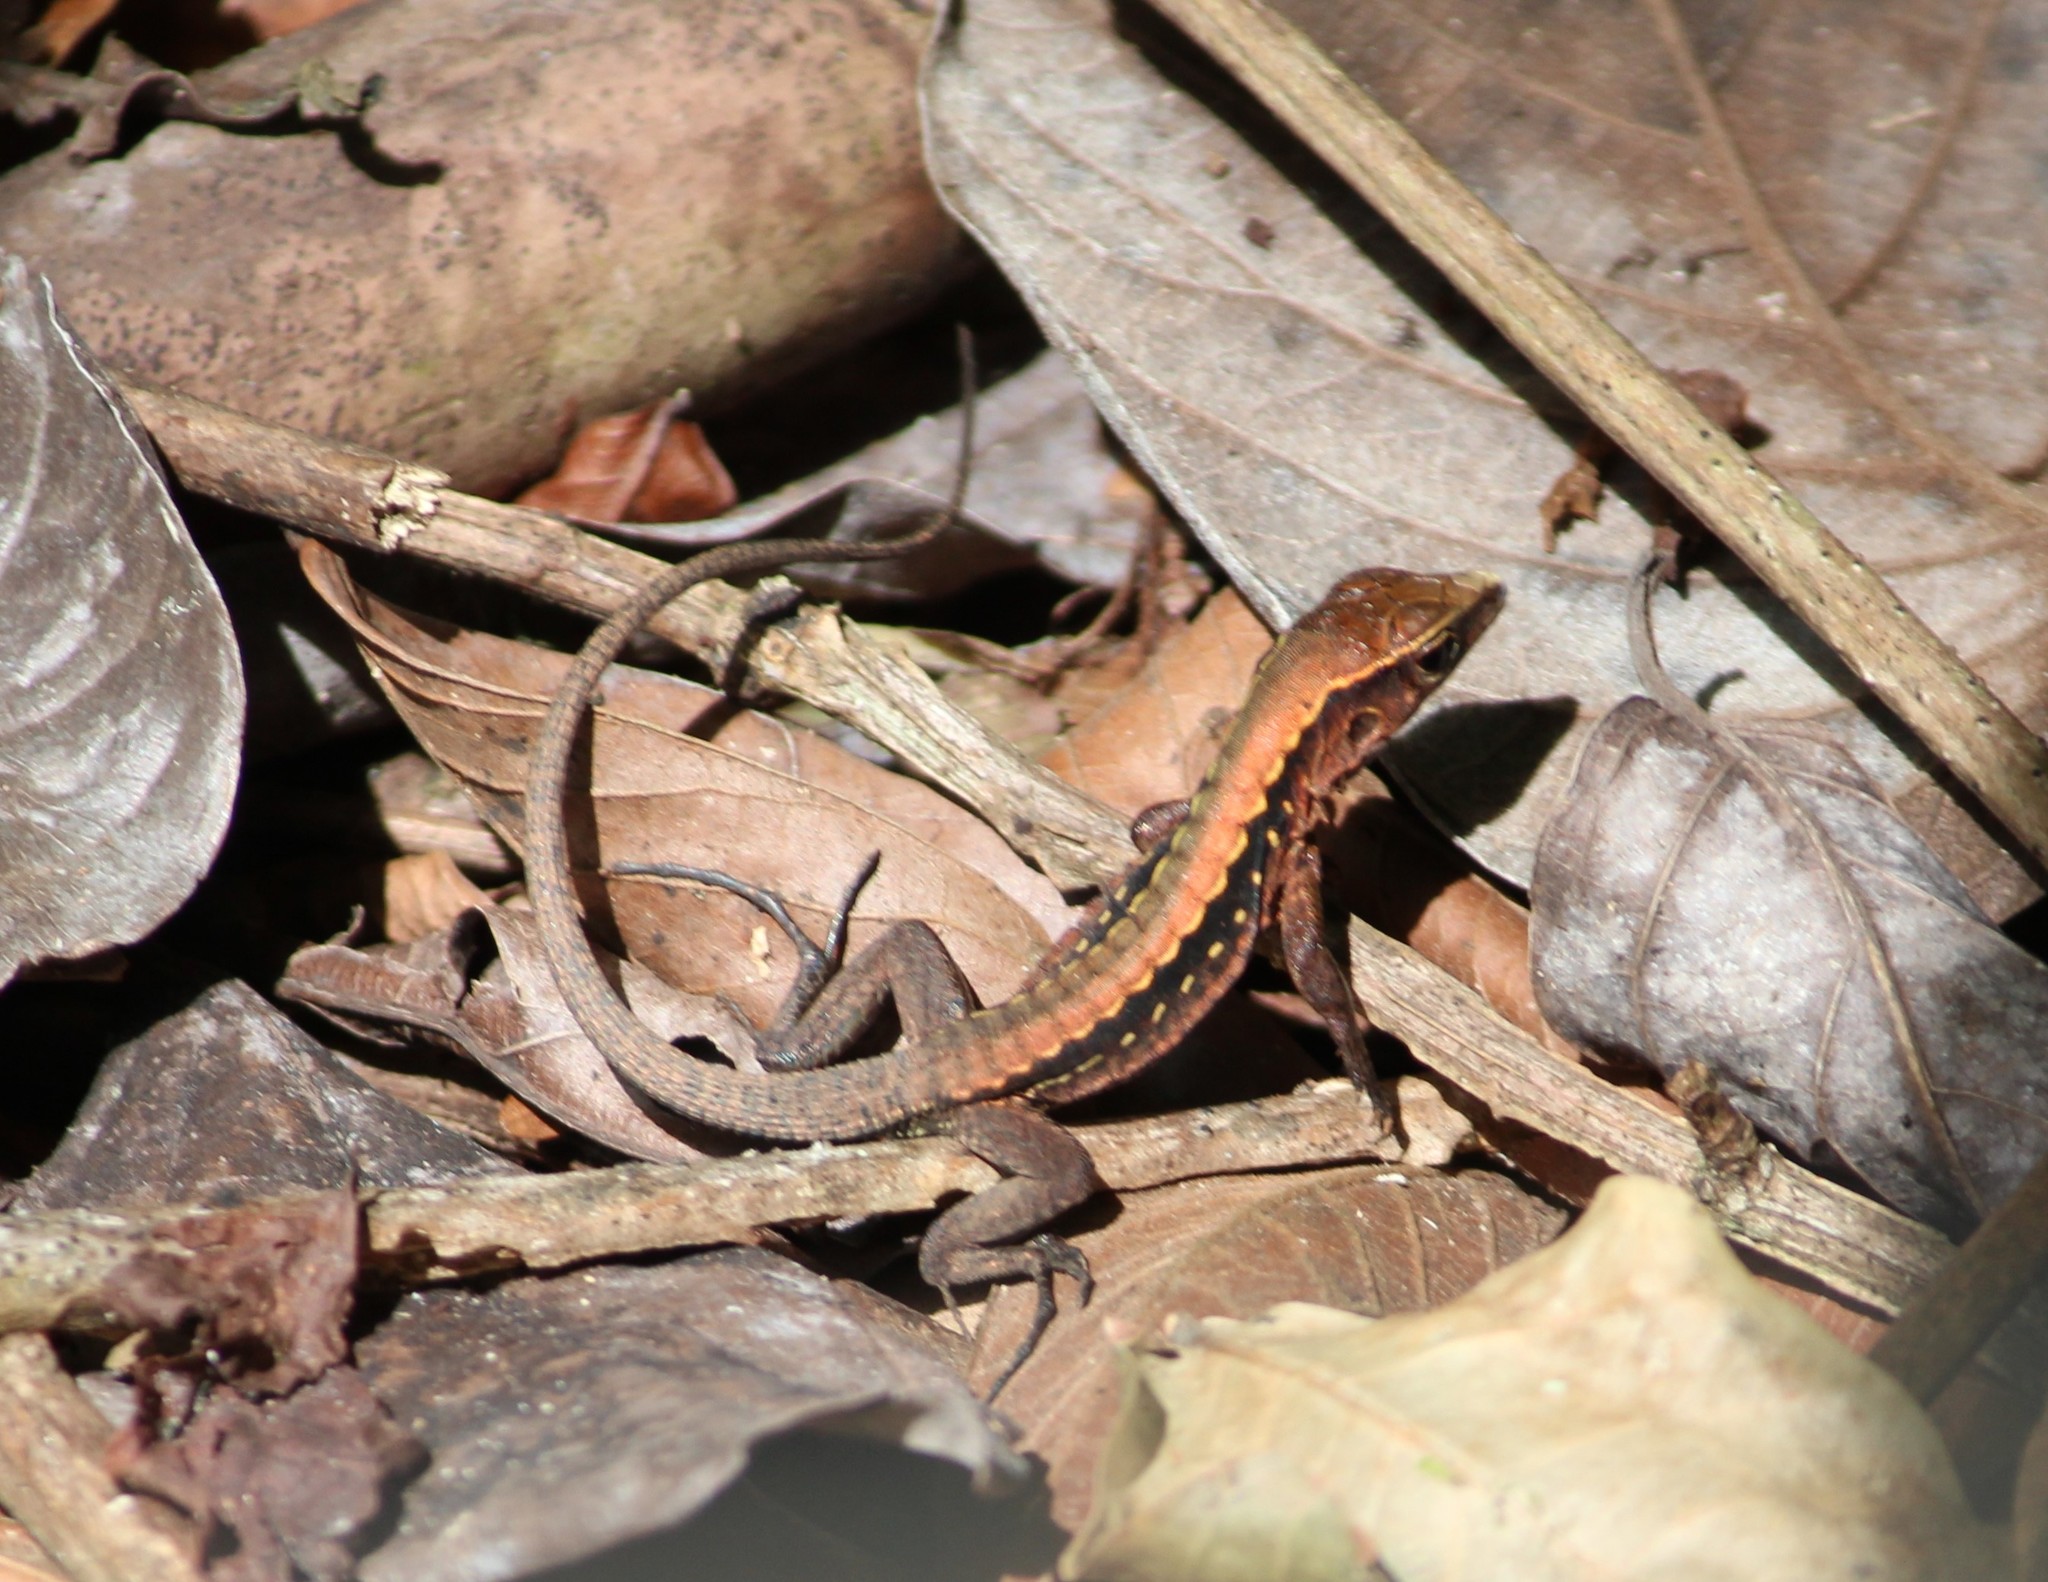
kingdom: Animalia
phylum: Chordata
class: Squamata
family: Teiidae
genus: Holcosus
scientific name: Holcosus leptophrys
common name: Delicate ameiva
